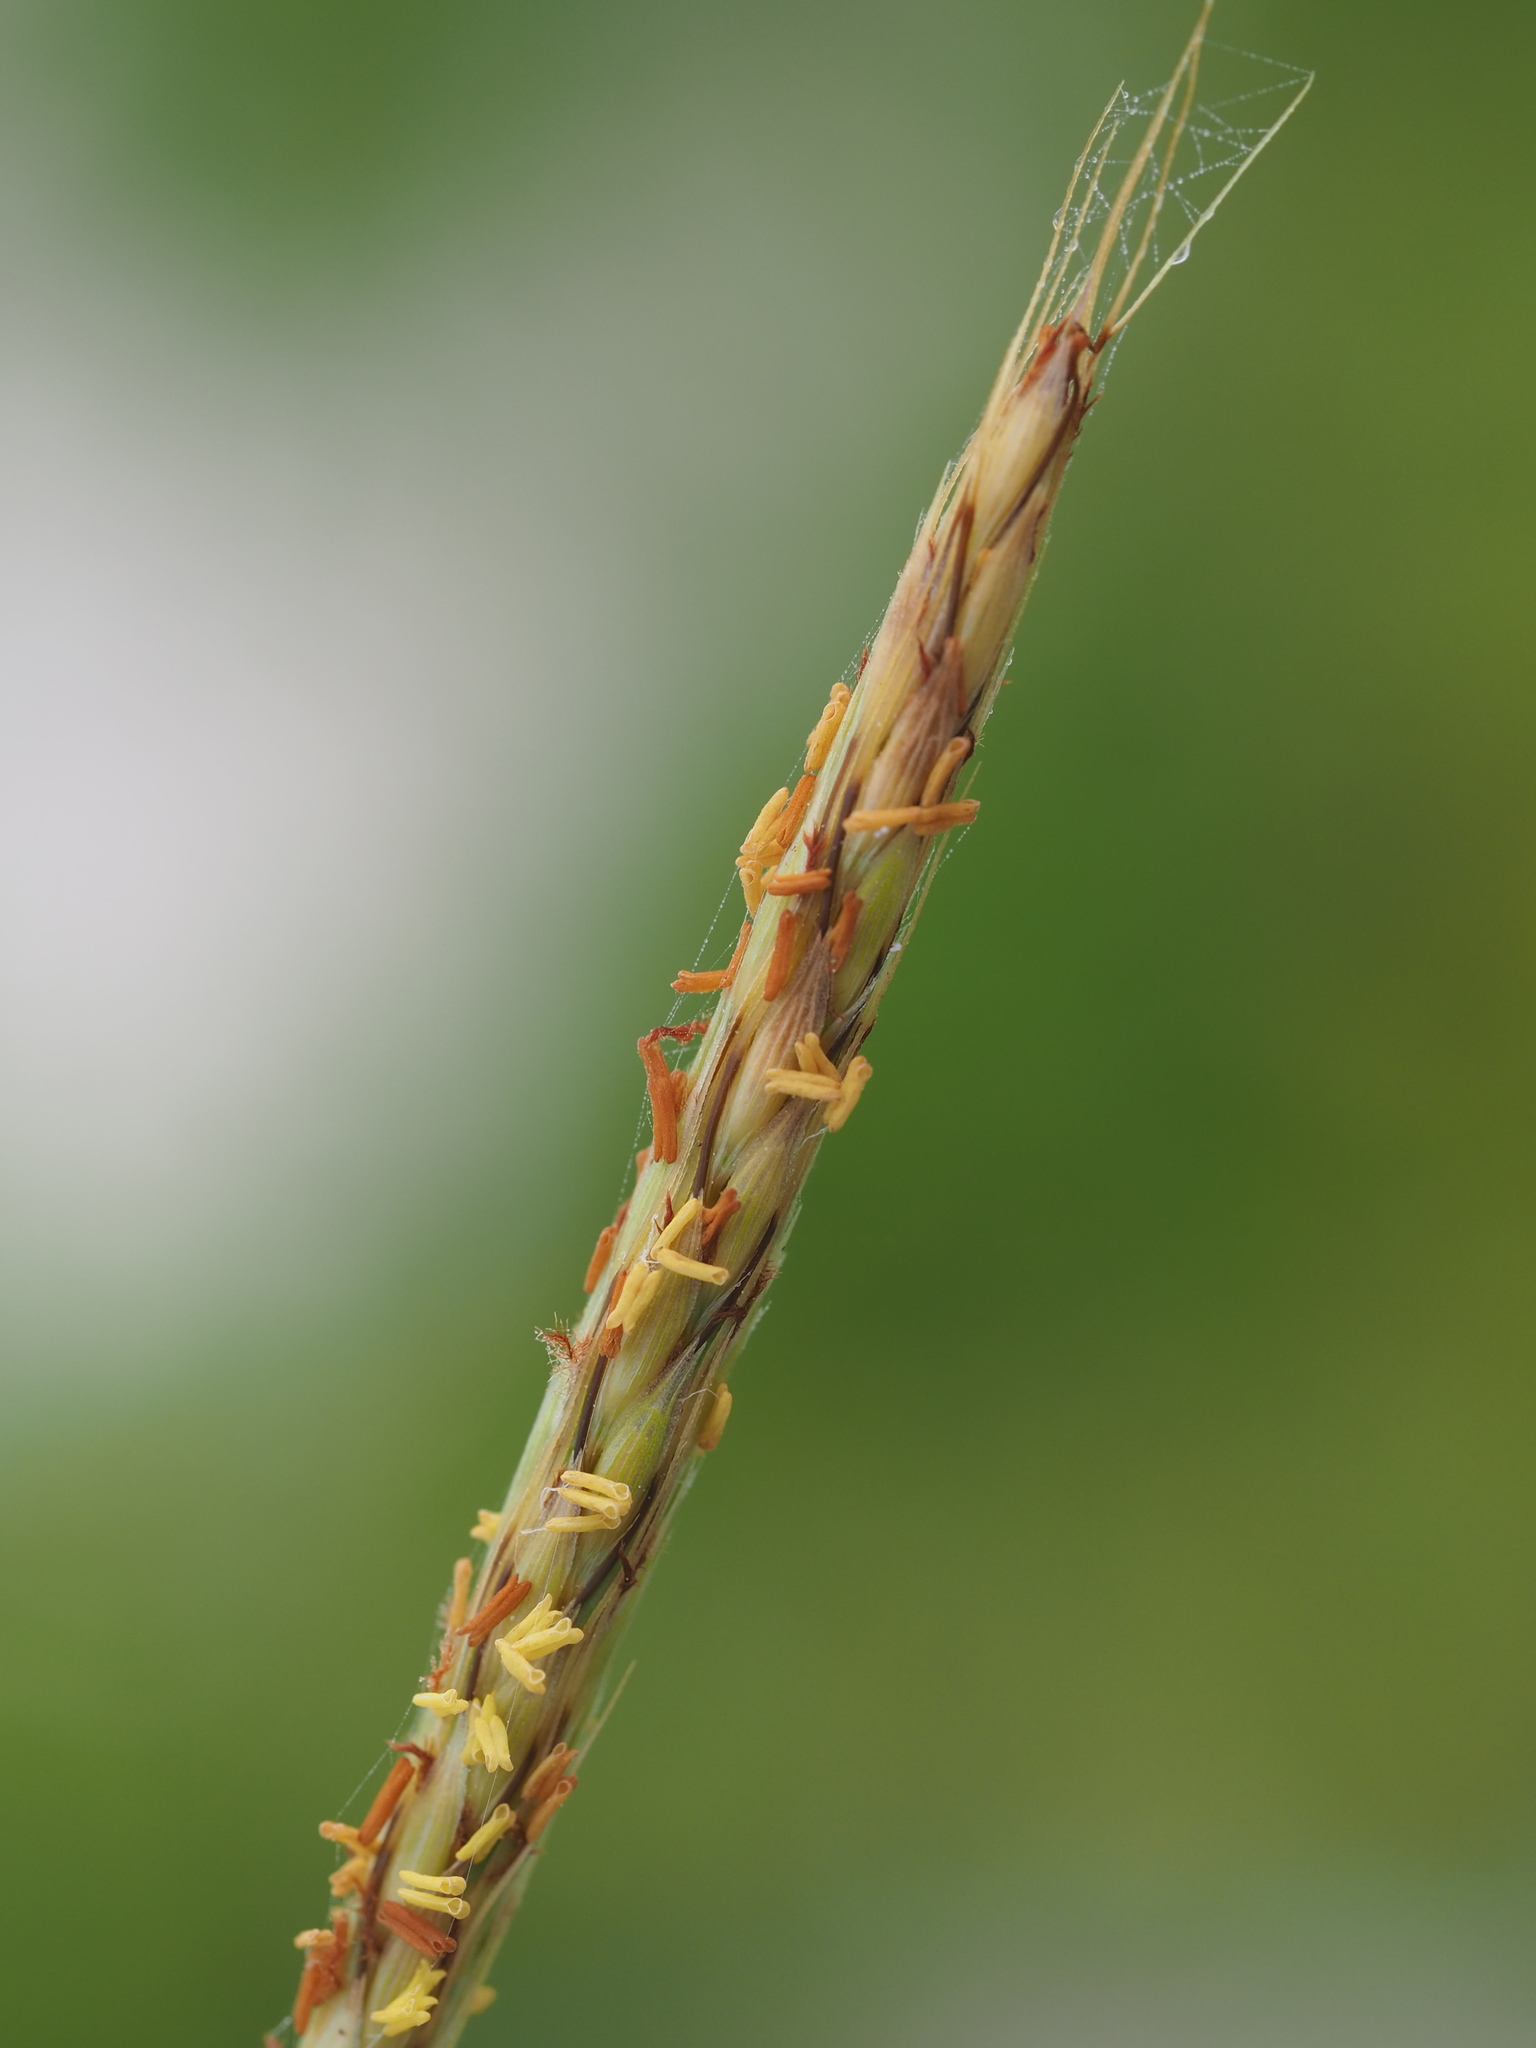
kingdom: Plantae
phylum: Tracheophyta
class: Liliopsida
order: Poales
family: Poaceae
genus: Ischaemum
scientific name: Ischaemum setaceum
